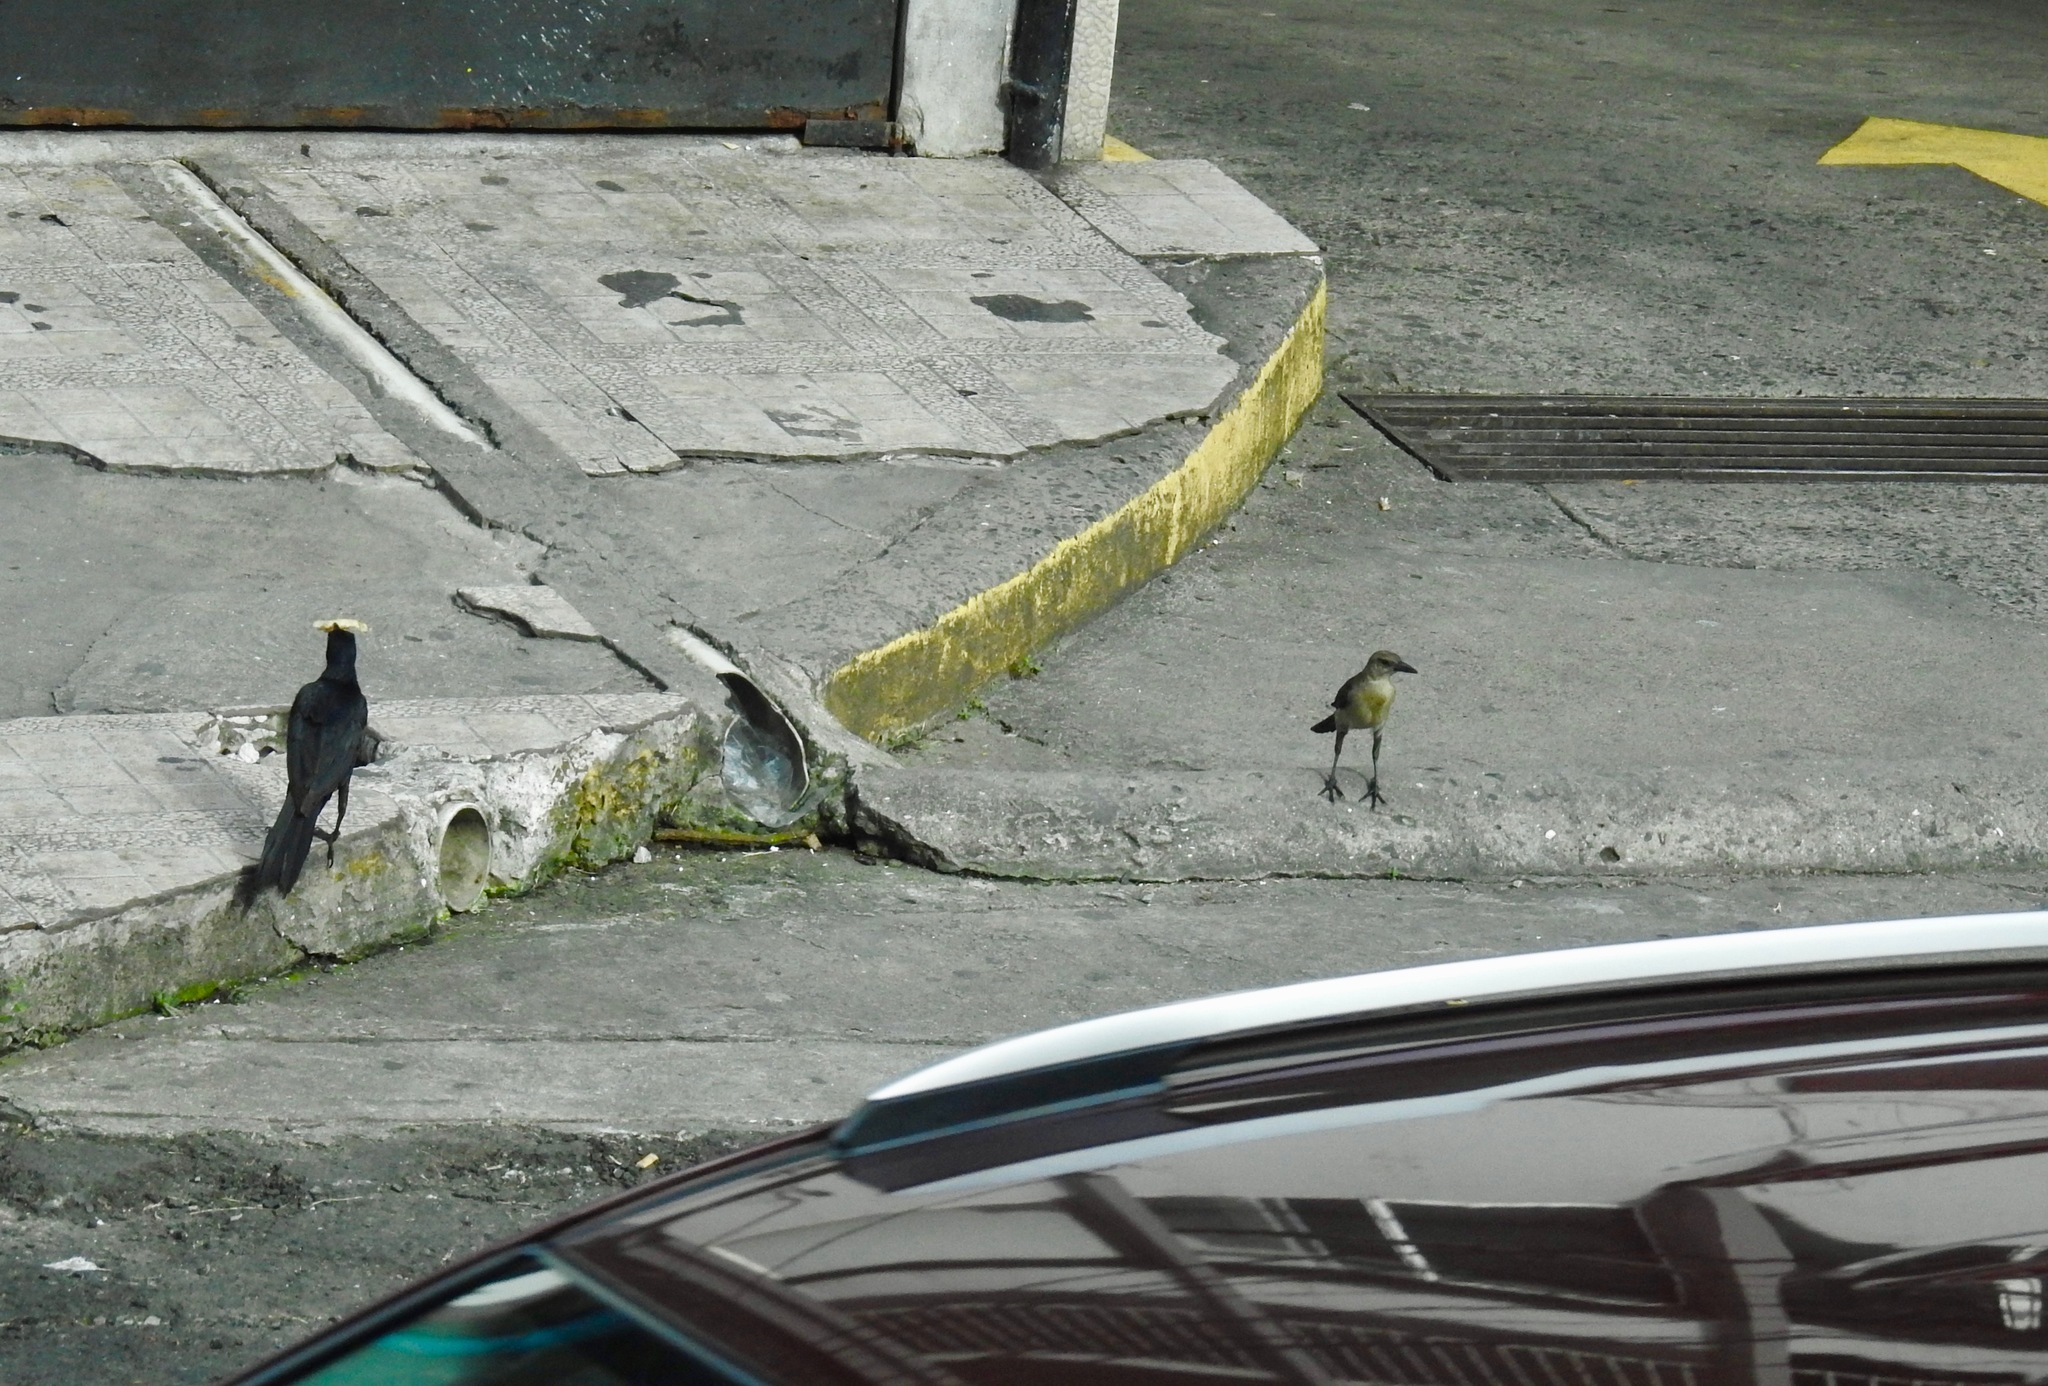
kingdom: Animalia
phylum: Chordata
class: Aves
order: Passeriformes
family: Icteridae
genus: Quiscalus
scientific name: Quiscalus mexicanus
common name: Great-tailed grackle
